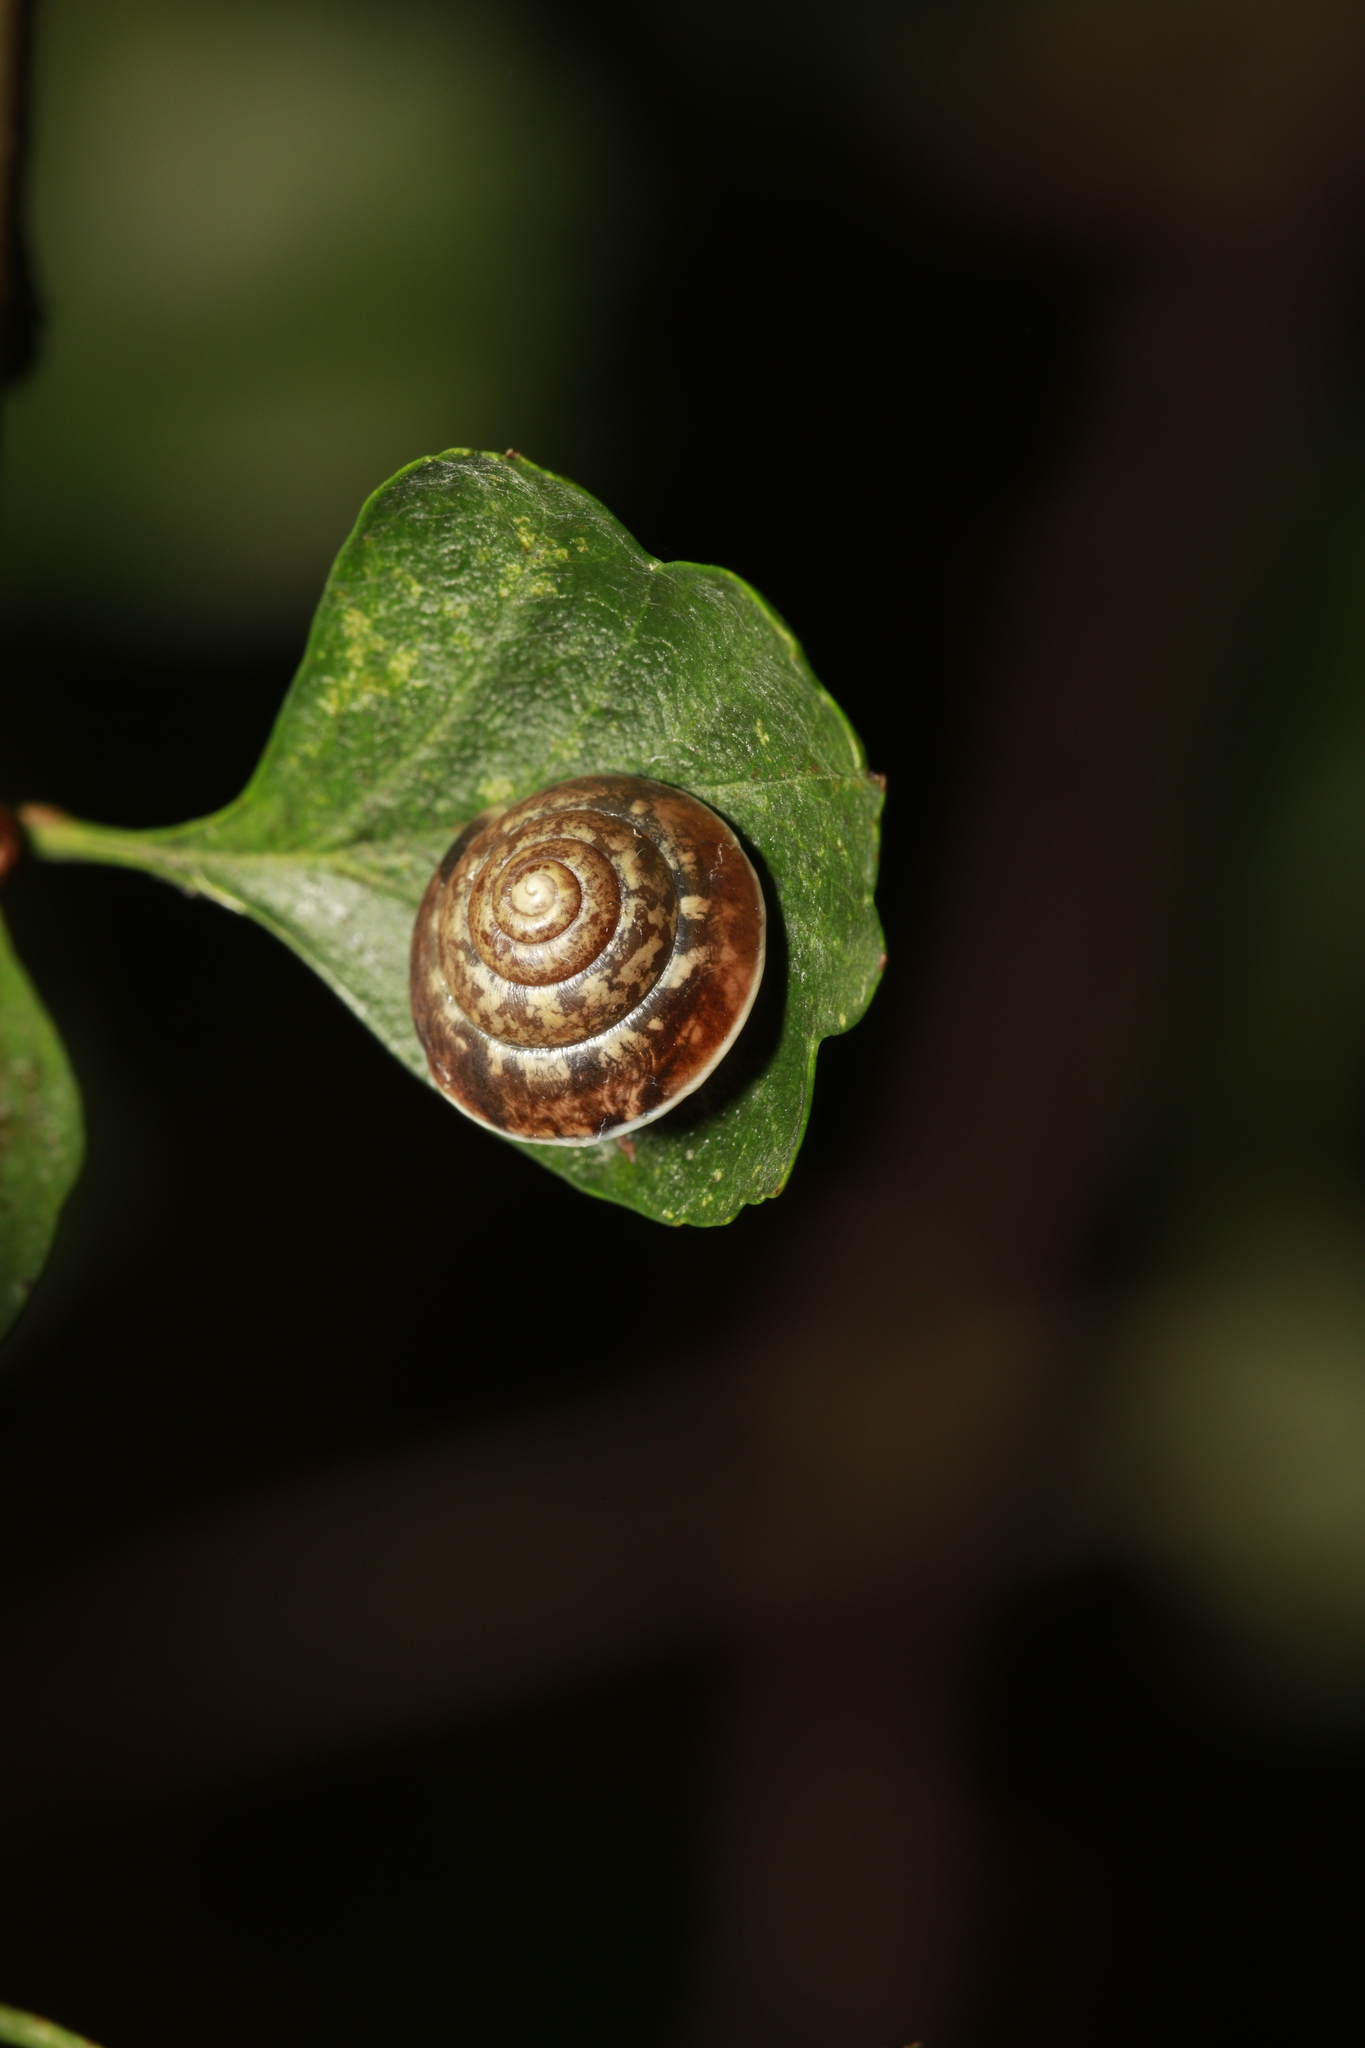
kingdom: Animalia
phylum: Mollusca
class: Gastropoda
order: Stylommatophora
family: Hygromiidae
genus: Hygromia
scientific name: Hygromia cinctella
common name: Girdled snail
